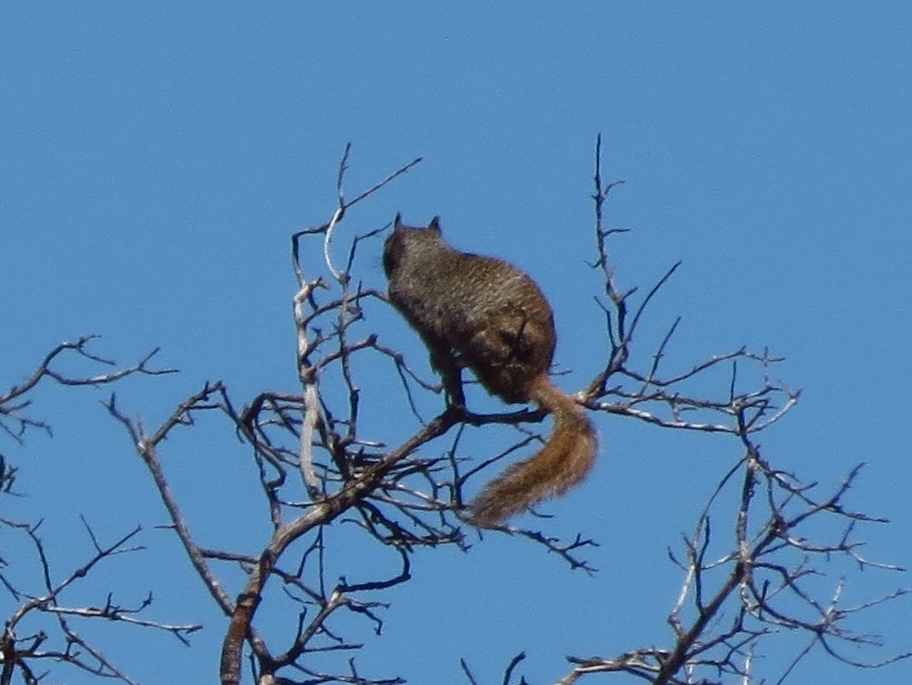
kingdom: Animalia
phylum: Chordata
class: Mammalia
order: Rodentia
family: Sciuridae
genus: Otospermophilus
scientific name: Otospermophilus variegatus
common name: Rock squirrel
